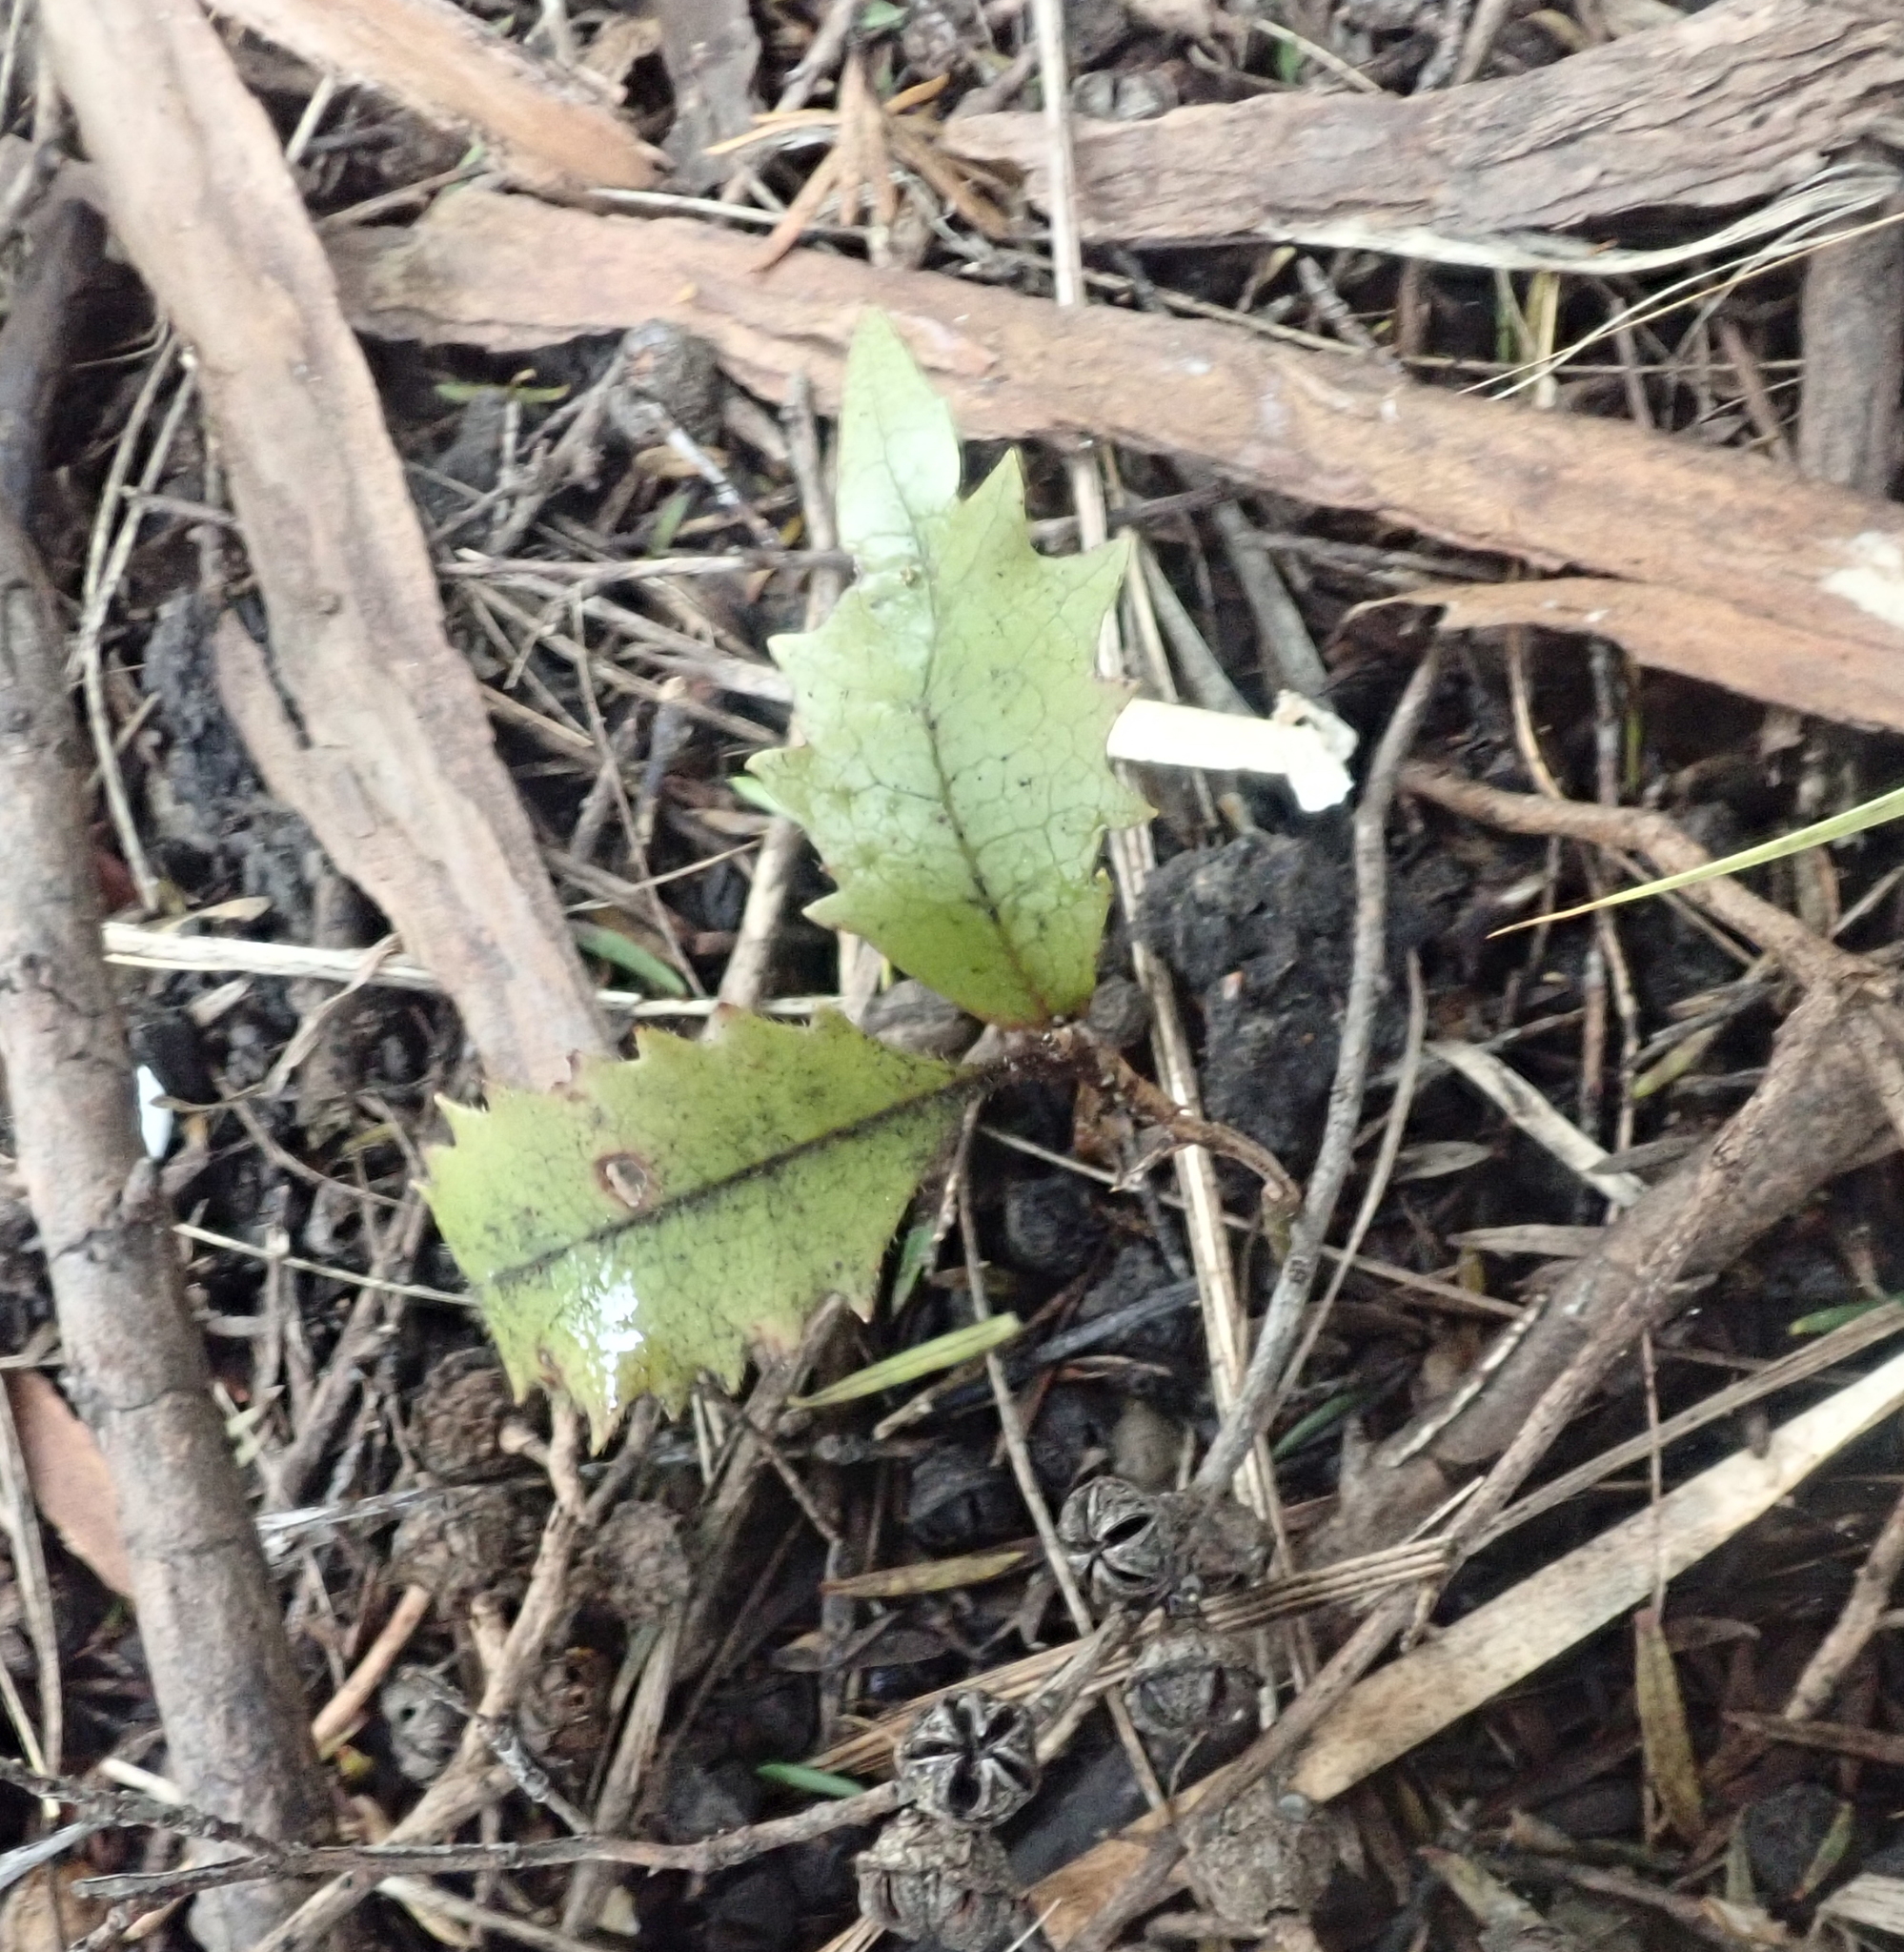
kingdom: Plantae
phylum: Tracheophyta
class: Magnoliopsida
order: Proteales
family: Proteaceae
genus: Knightia
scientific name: Knightia excelsa
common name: New zealand-honeysuckle
